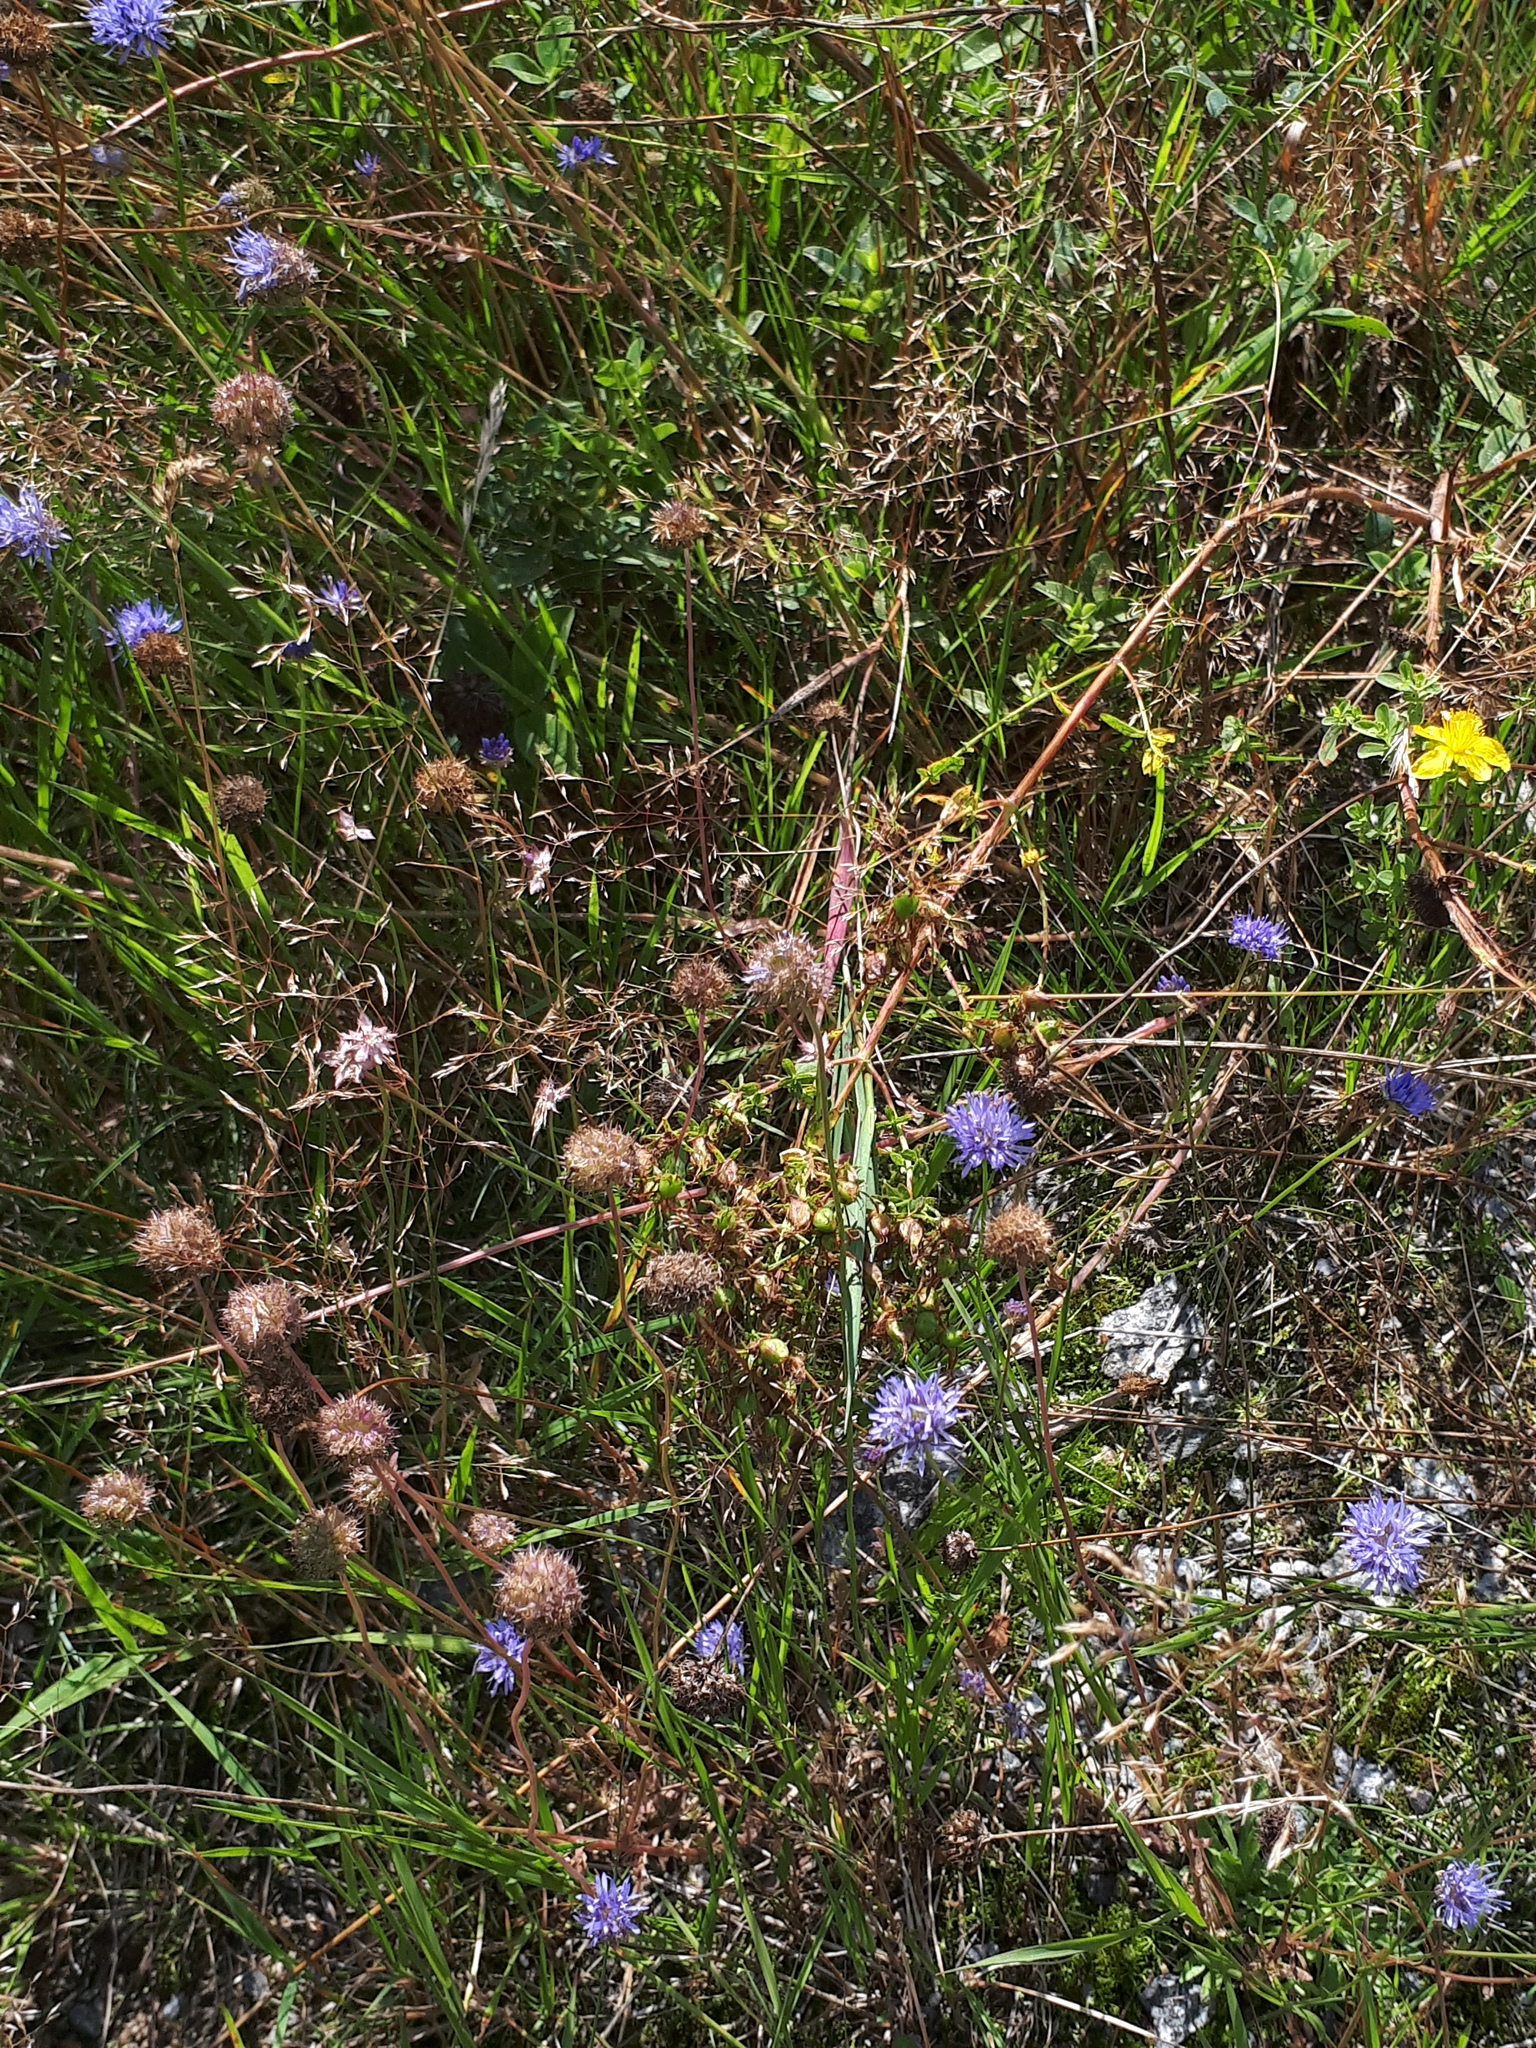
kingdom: Plantae
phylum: Tracheophyta
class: Magnoliopsida
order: Asterales
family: Campanulaceae
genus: Jasione
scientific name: Jasione montana
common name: Sheep's-bit
